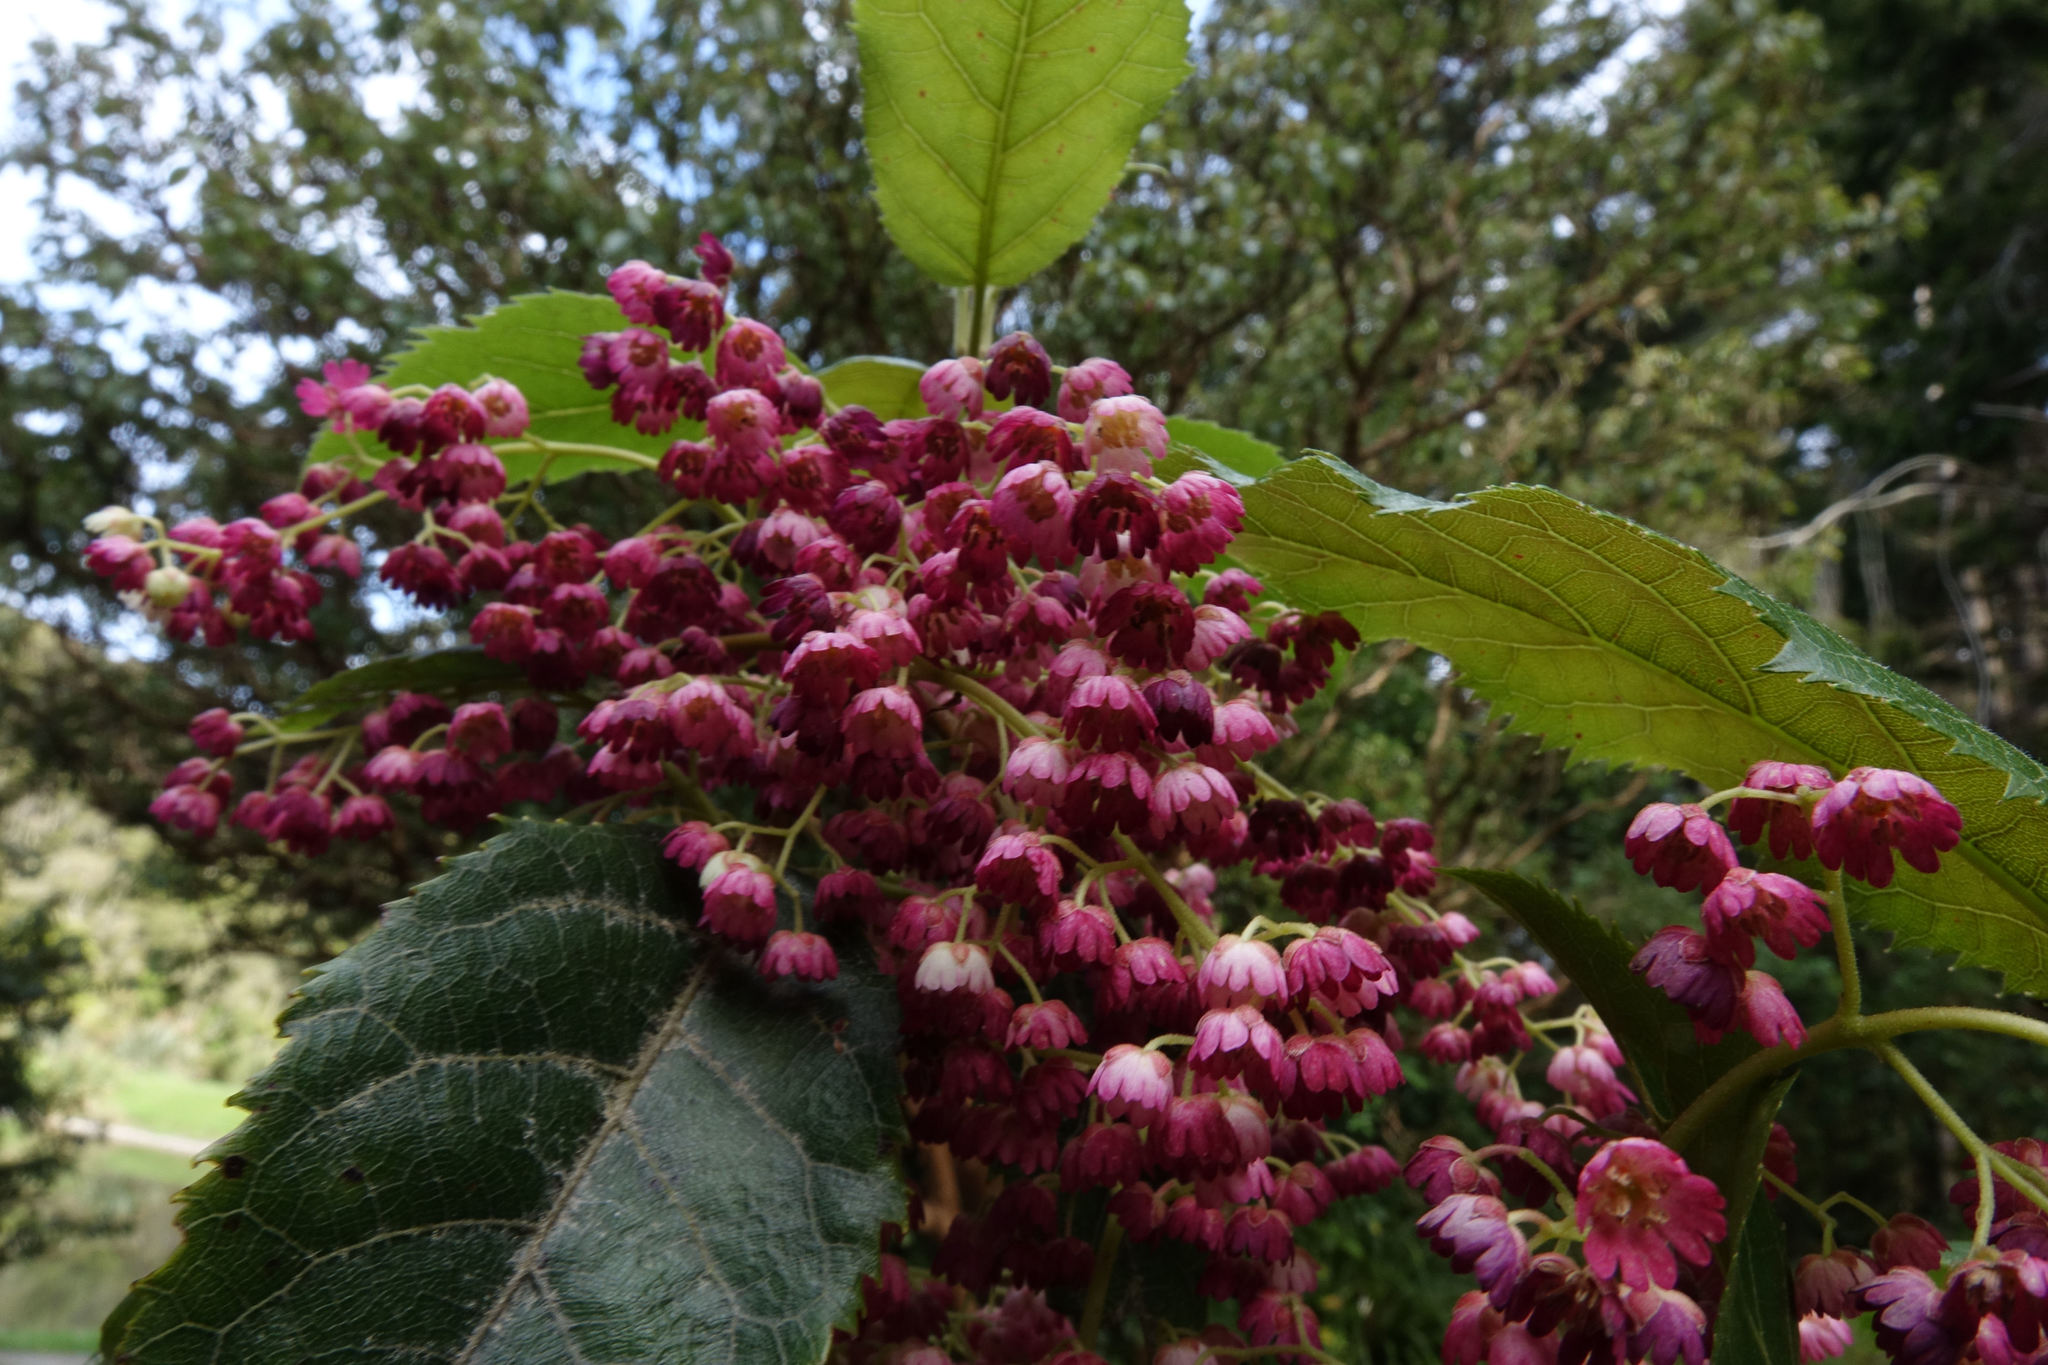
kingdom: Plantae
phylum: Tracheophyta
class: Magnoliopsida
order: Oxalidales
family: Elaeocarpaceae
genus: Aristotelia
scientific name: Aristotelia serrata
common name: New zealand wineberry
